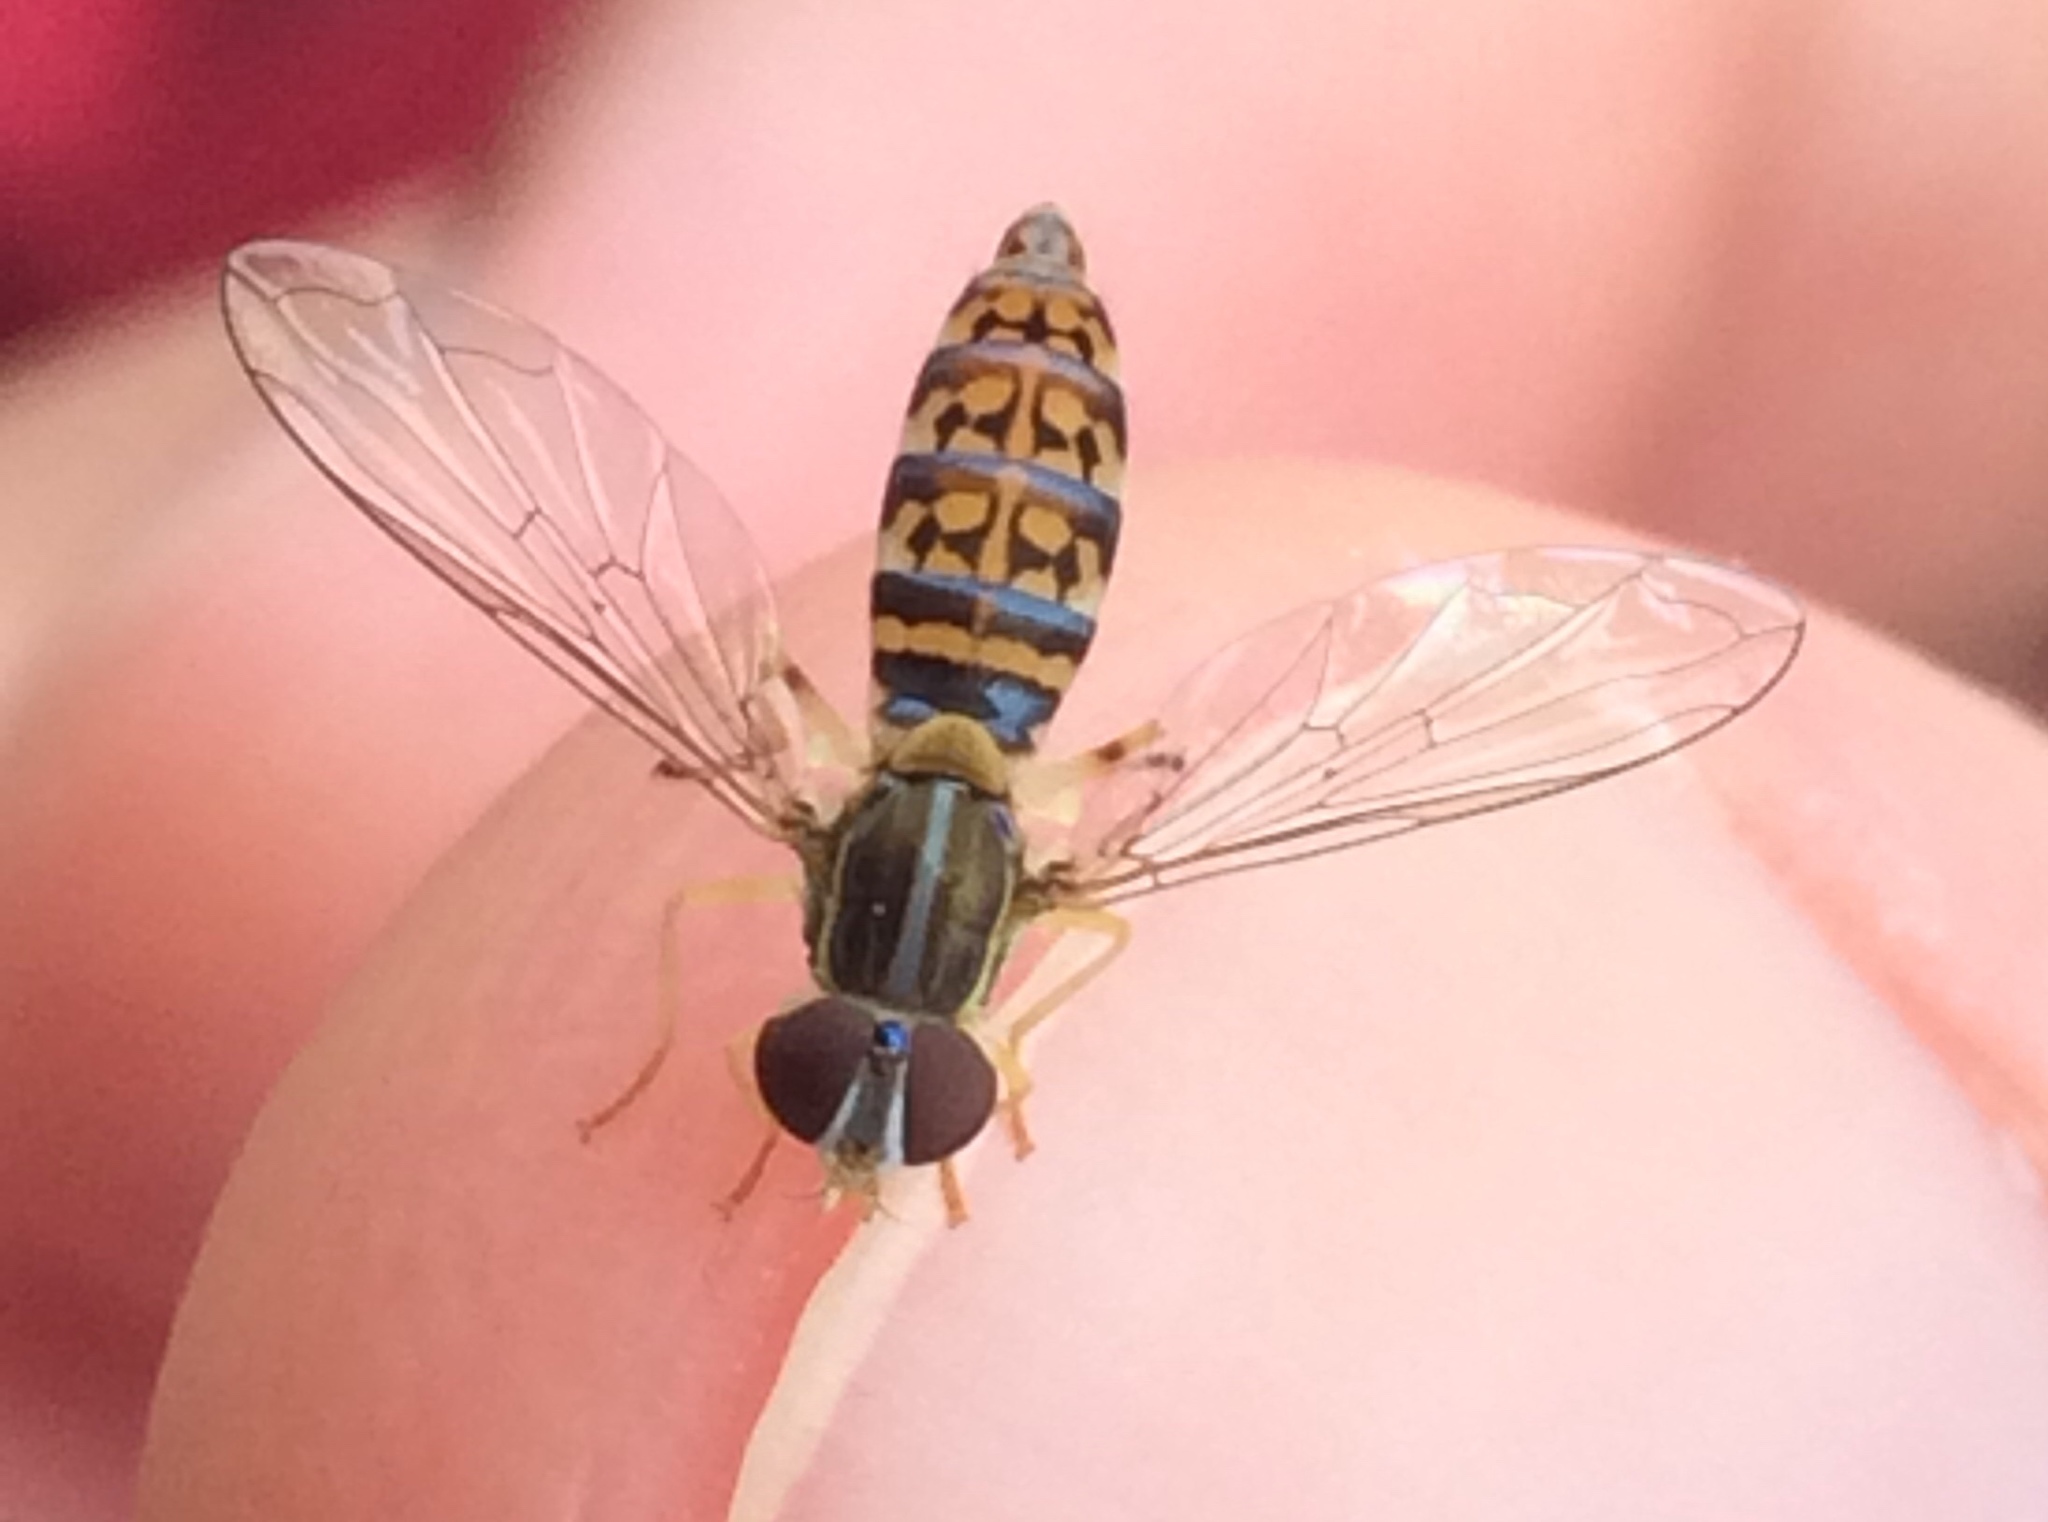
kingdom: Animalia
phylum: Arthropoda
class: Insecta
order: Diptera
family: Syrphidae
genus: Toxomerus
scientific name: Toxomerus
